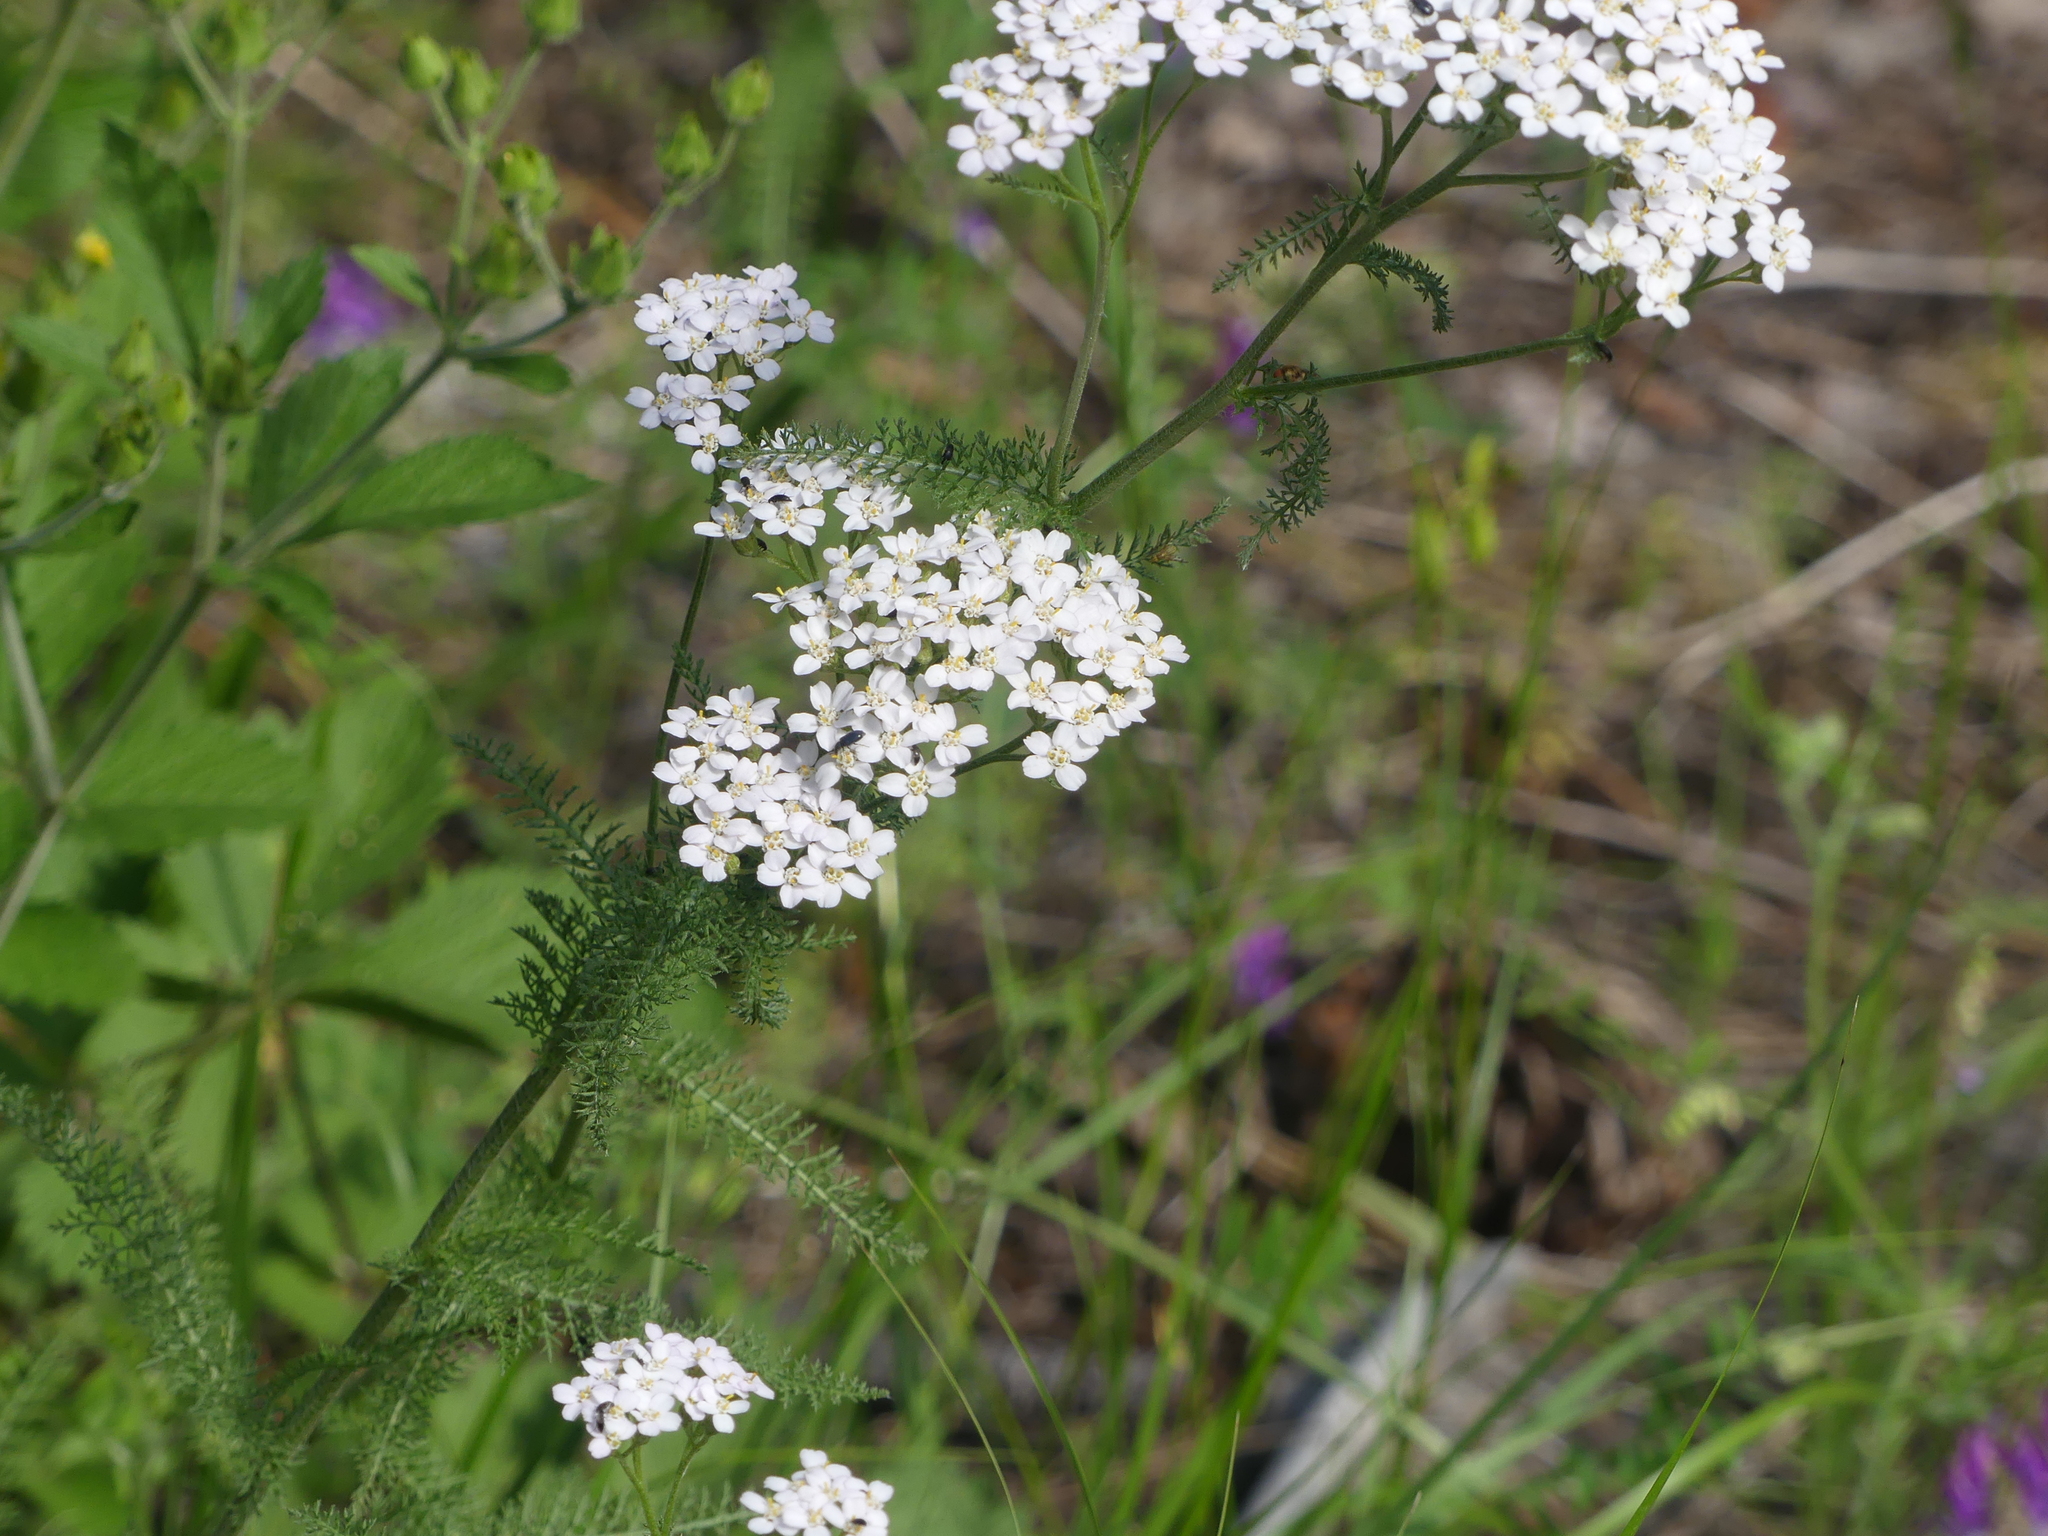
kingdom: Plantae
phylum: Tracheophyta
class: Magnoliopsida
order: Asterales
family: Asteraceae
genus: Achillea
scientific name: Achillea millefolium
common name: Yarrow
